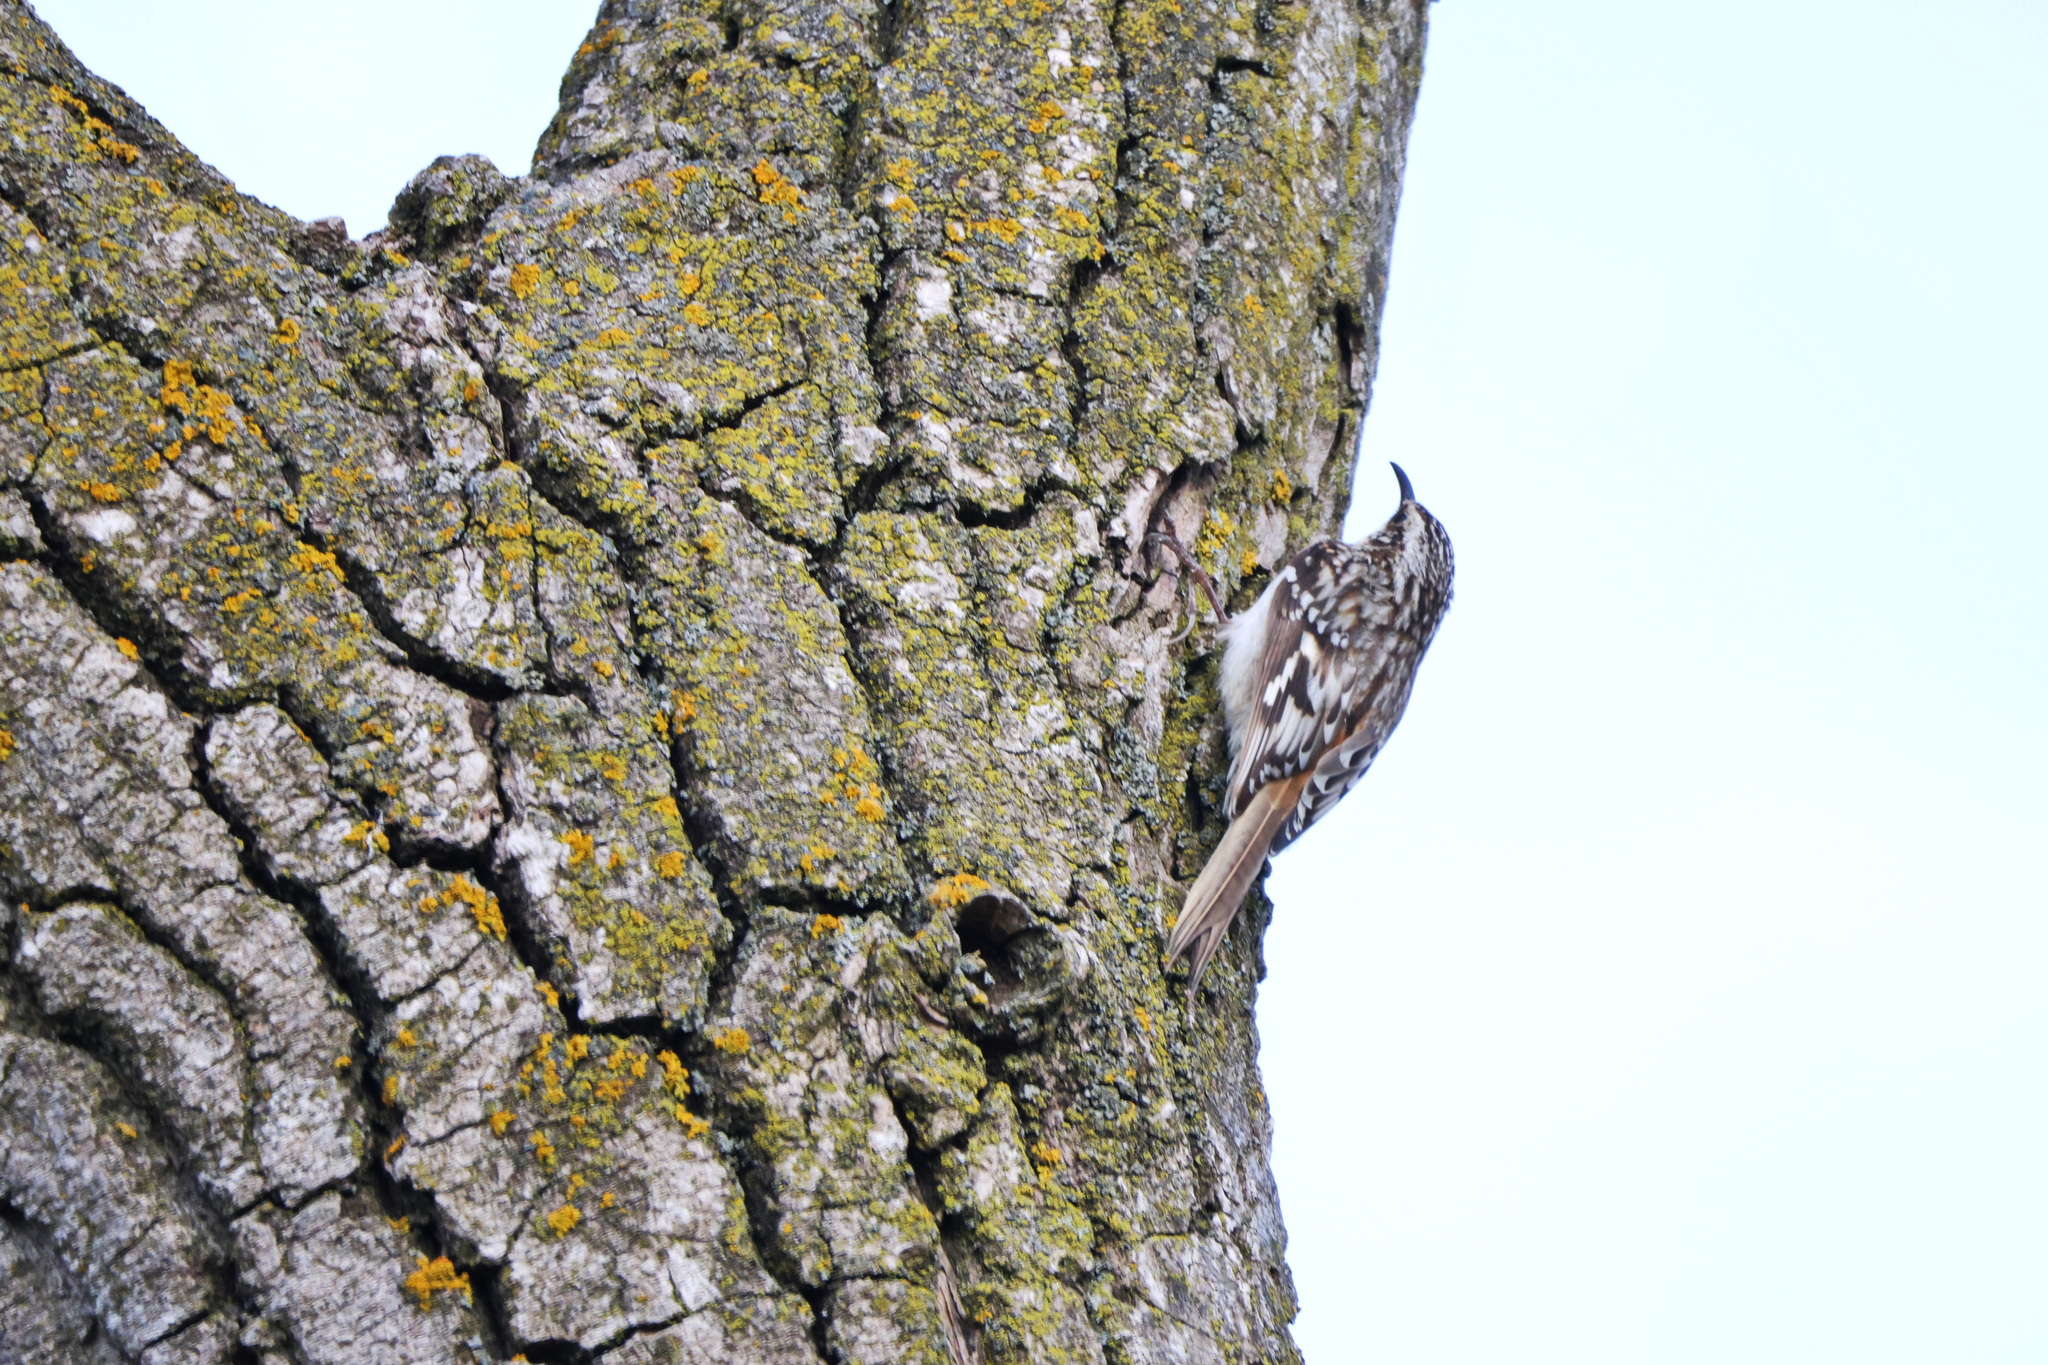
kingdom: Animalia
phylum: Chordata
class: Aves
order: Passeriformes
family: Certhiidae
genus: Certhia
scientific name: Certhia americana
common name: Brown creeper
